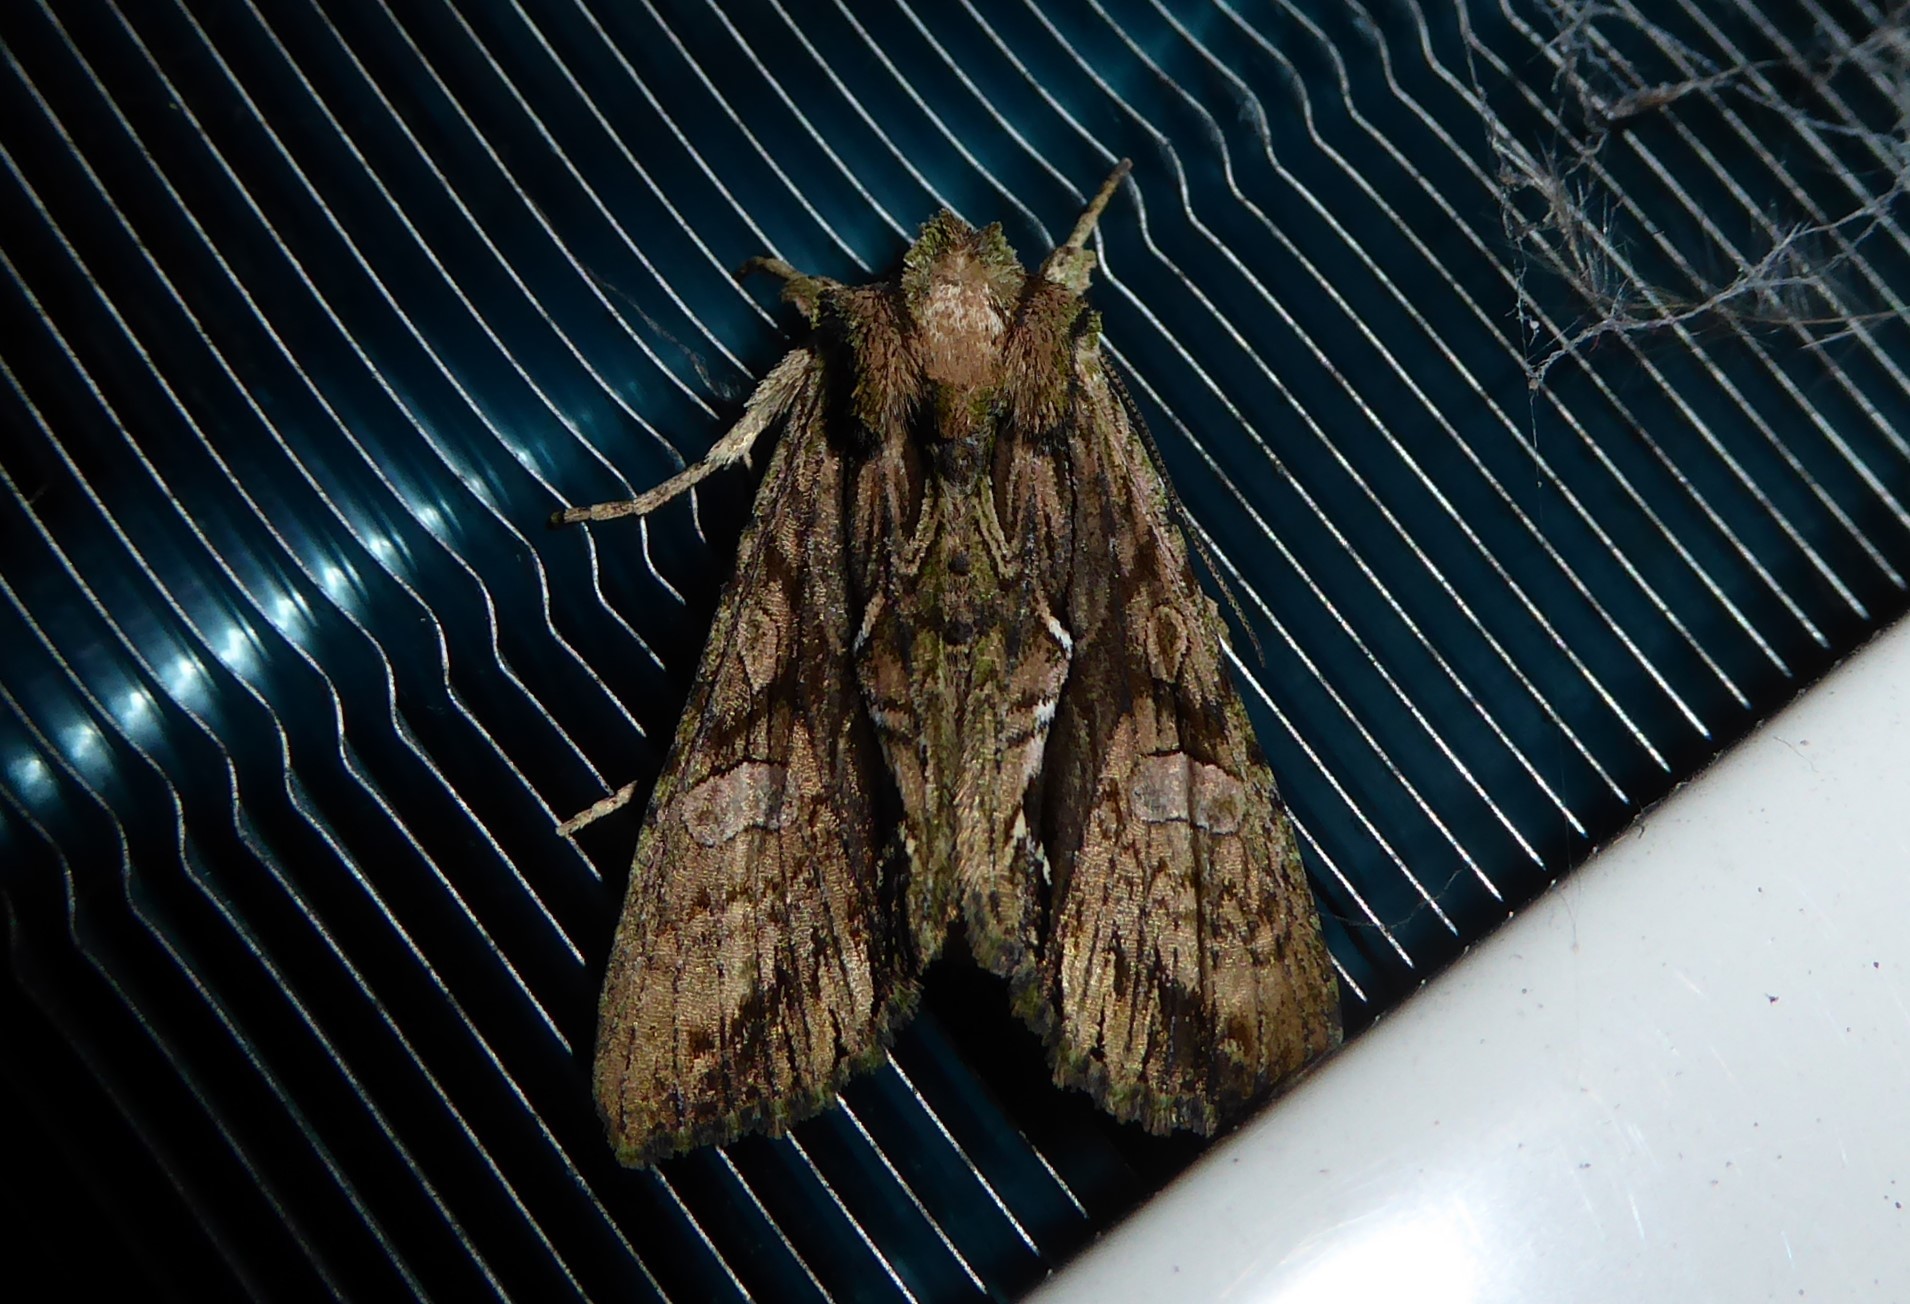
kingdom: Animalia
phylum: Arthropoda
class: Insecta
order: Lepidoptera
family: Noctuidae
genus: Meterana
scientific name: Meterana decorata
